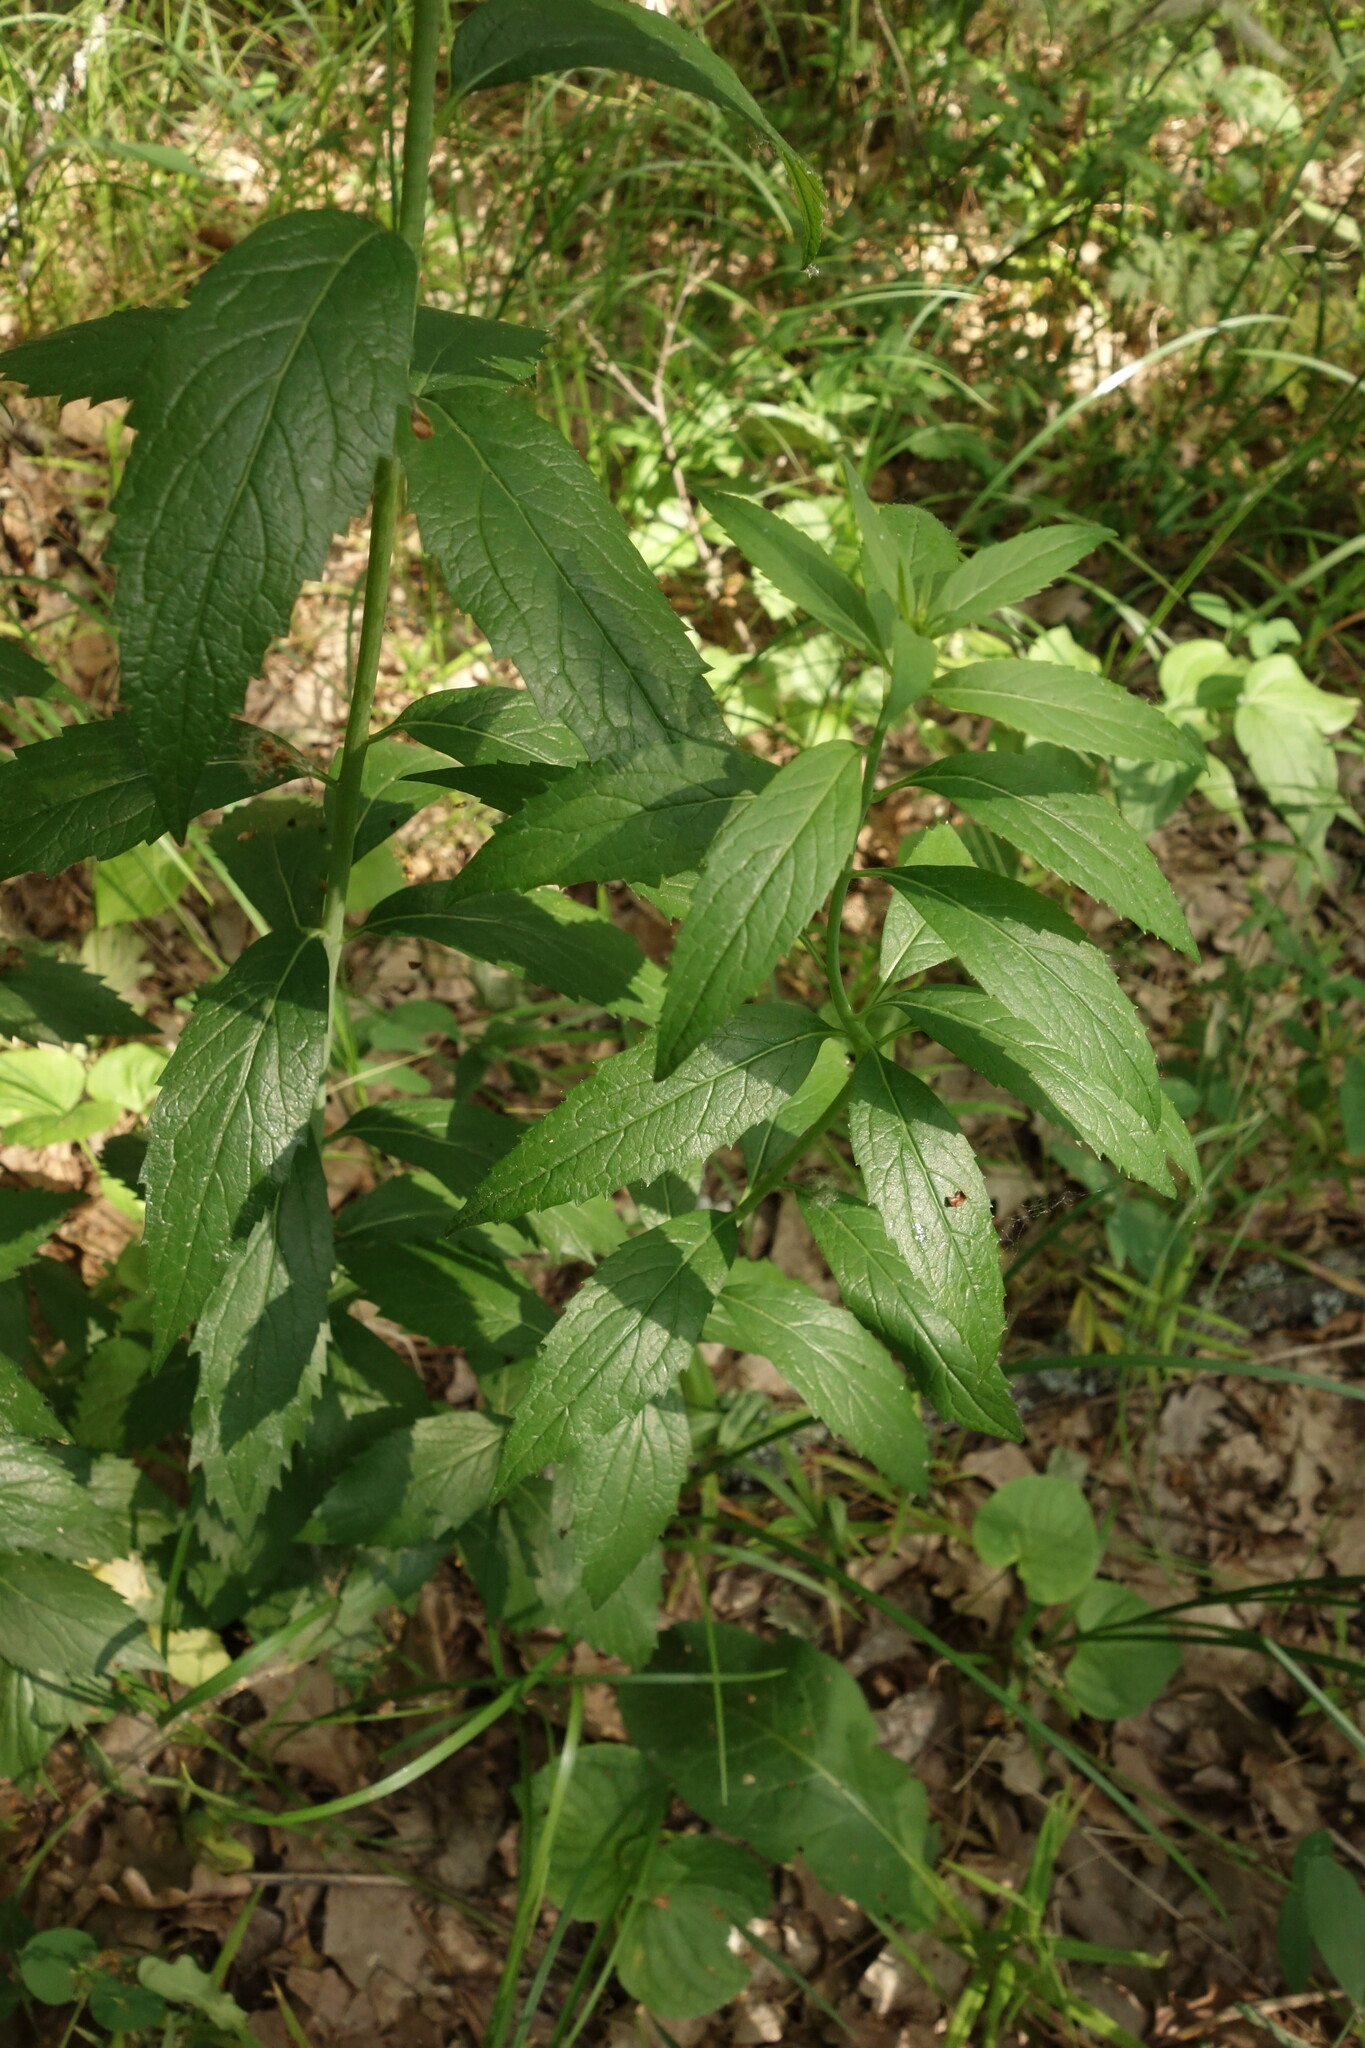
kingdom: Plantae
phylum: Tracheophyta
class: Magnoliopsida
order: Asterales
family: Campanulaceae
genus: Adenophora
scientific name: Adenophora liliifolia
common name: Lilyleaf ladybells
